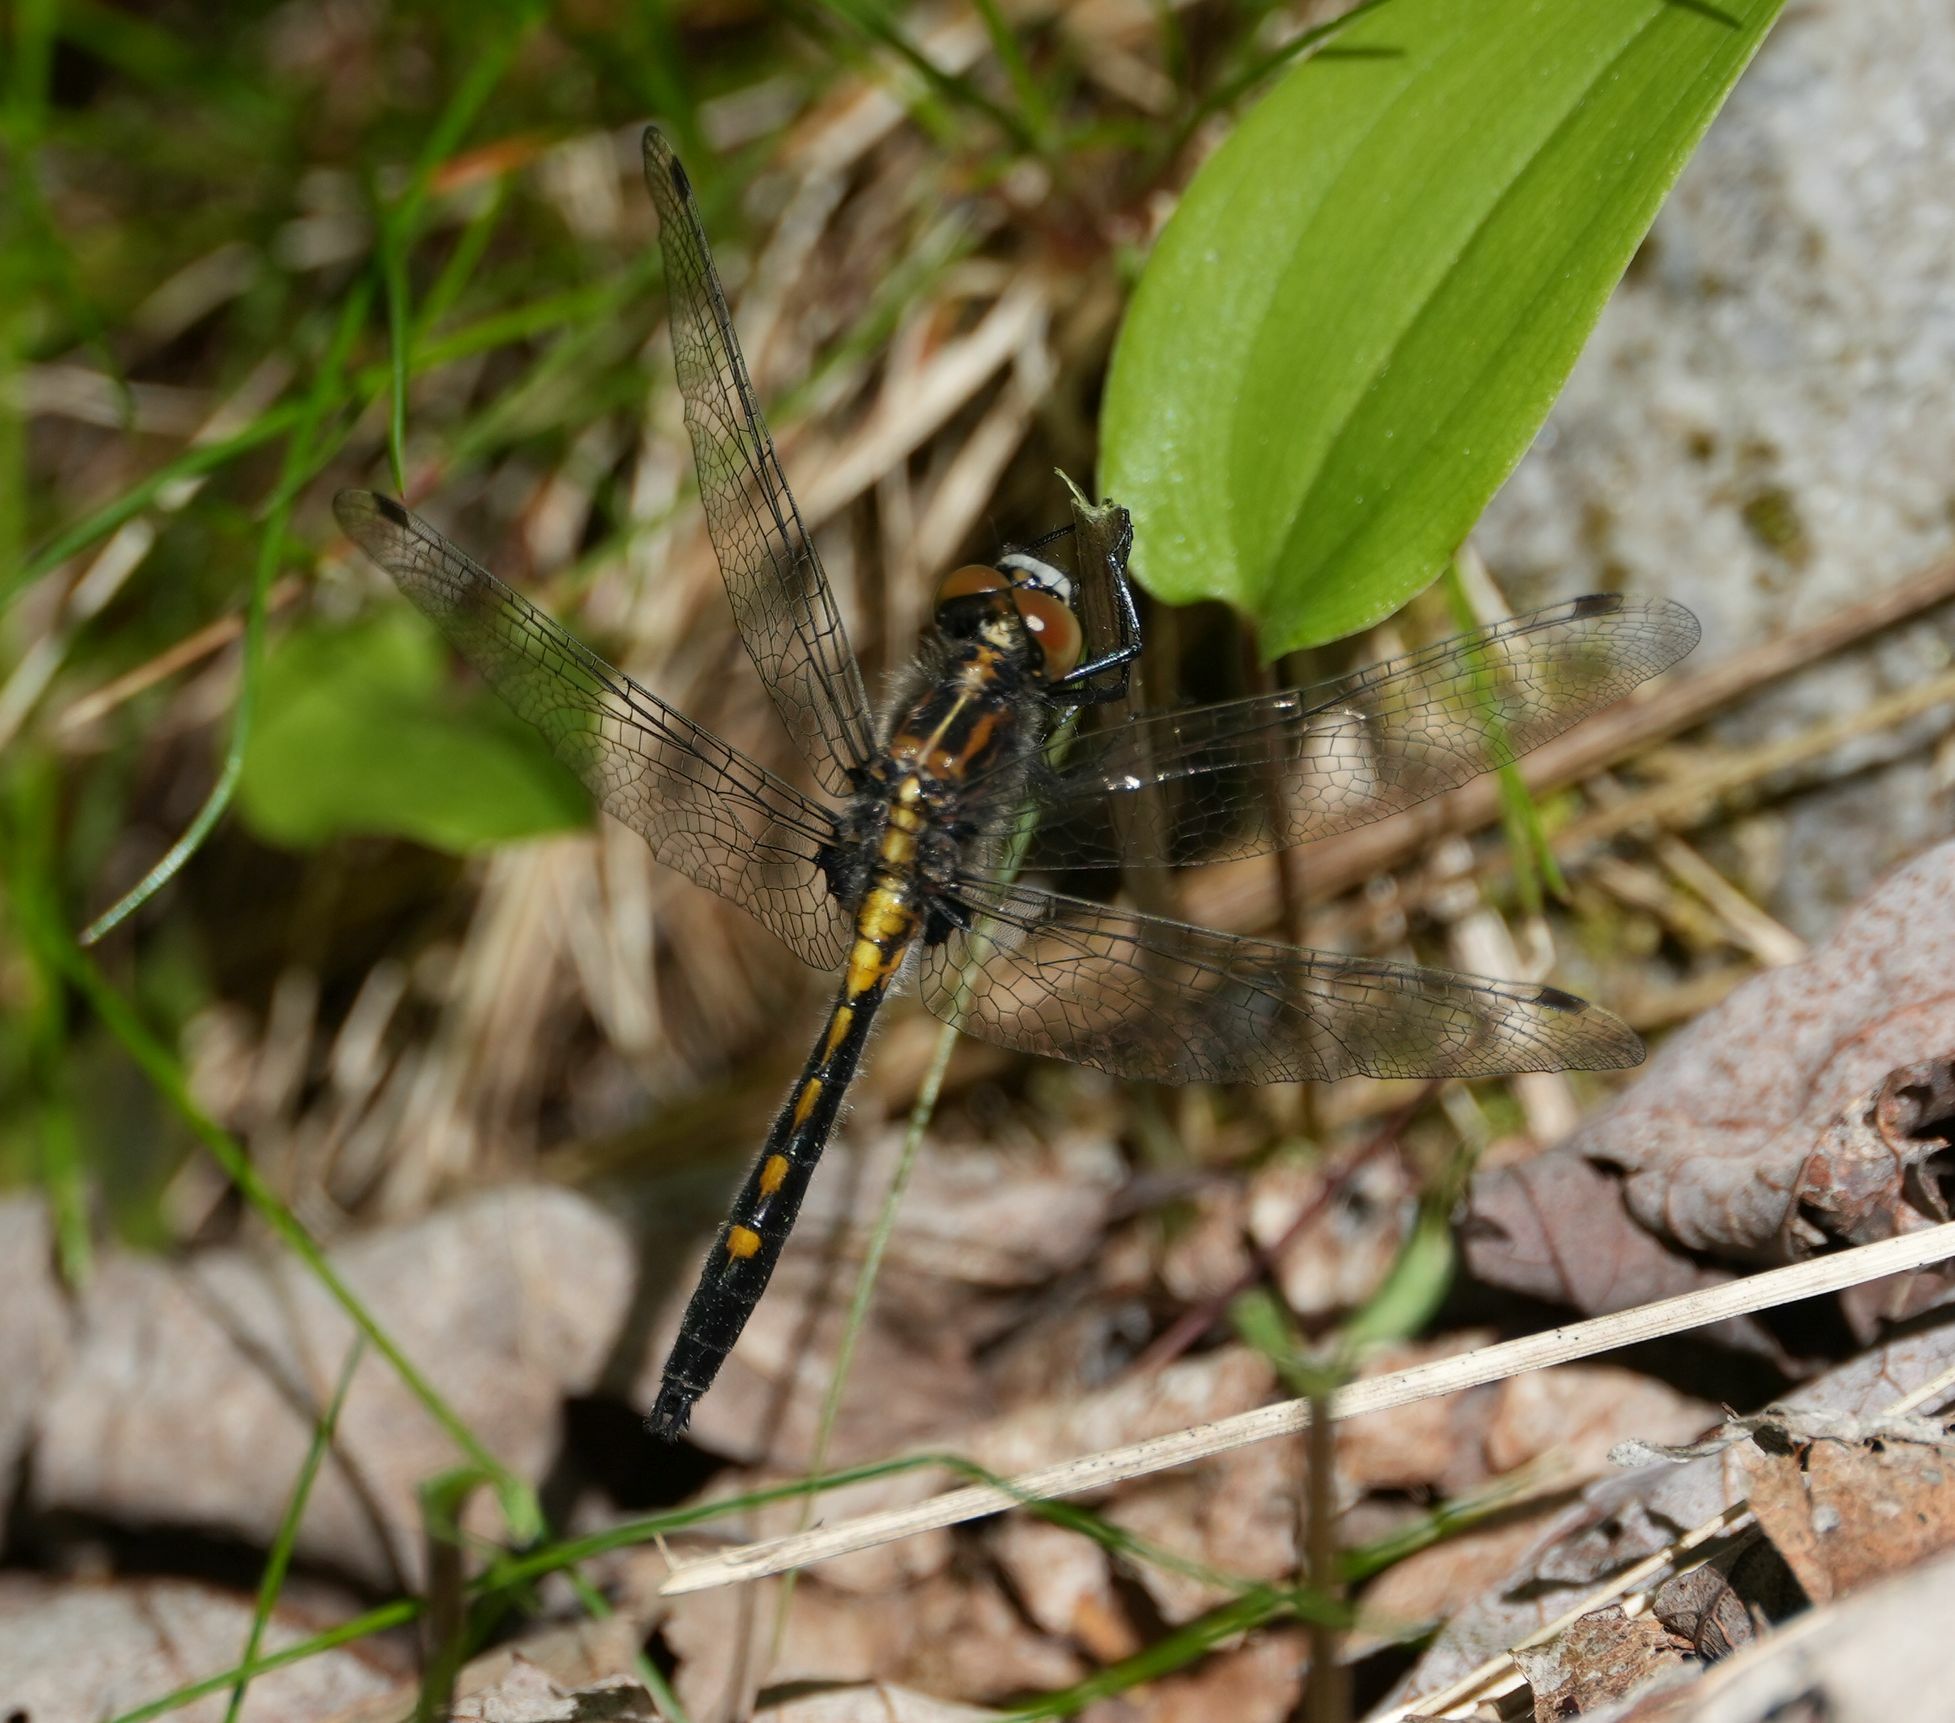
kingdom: Animalia
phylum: Arthropoda
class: Insecta
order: Odonata
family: Libellulidae
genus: Leucorrhinia
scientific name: Leucorrhinia intacta
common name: Dot-tailed whiteface
